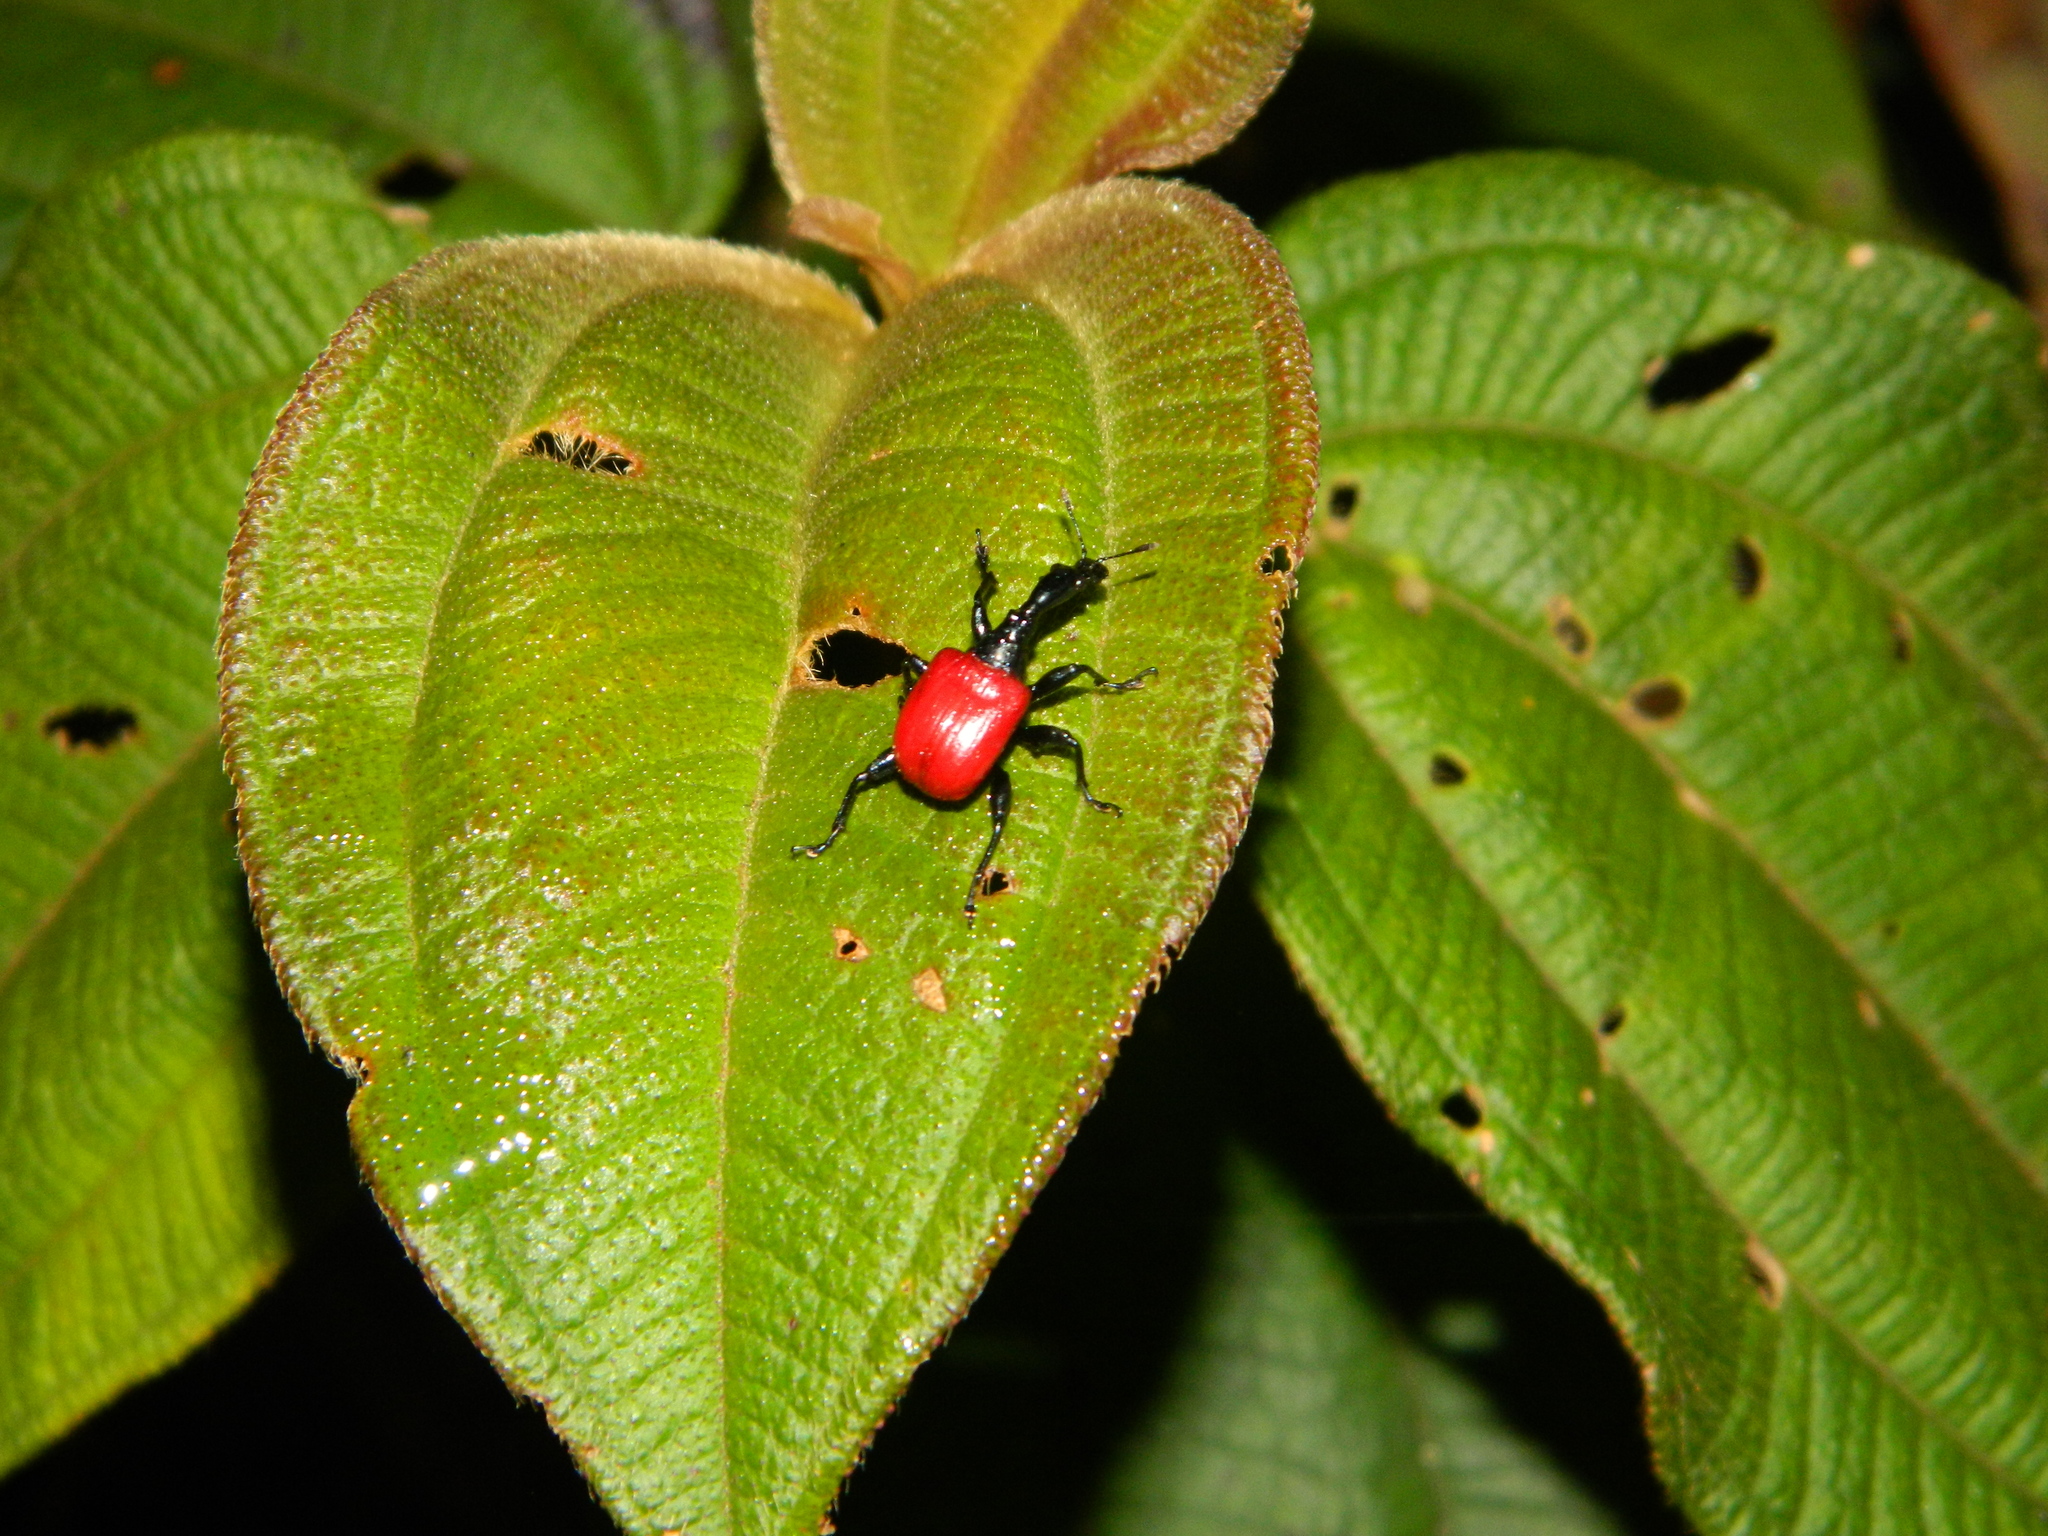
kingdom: Animalia
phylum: Arthropoda
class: Insecta
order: Coleoptera
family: Attelabidae
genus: Trachelophorus
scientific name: Trachelophorus giraffa
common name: Giraffe weevil
